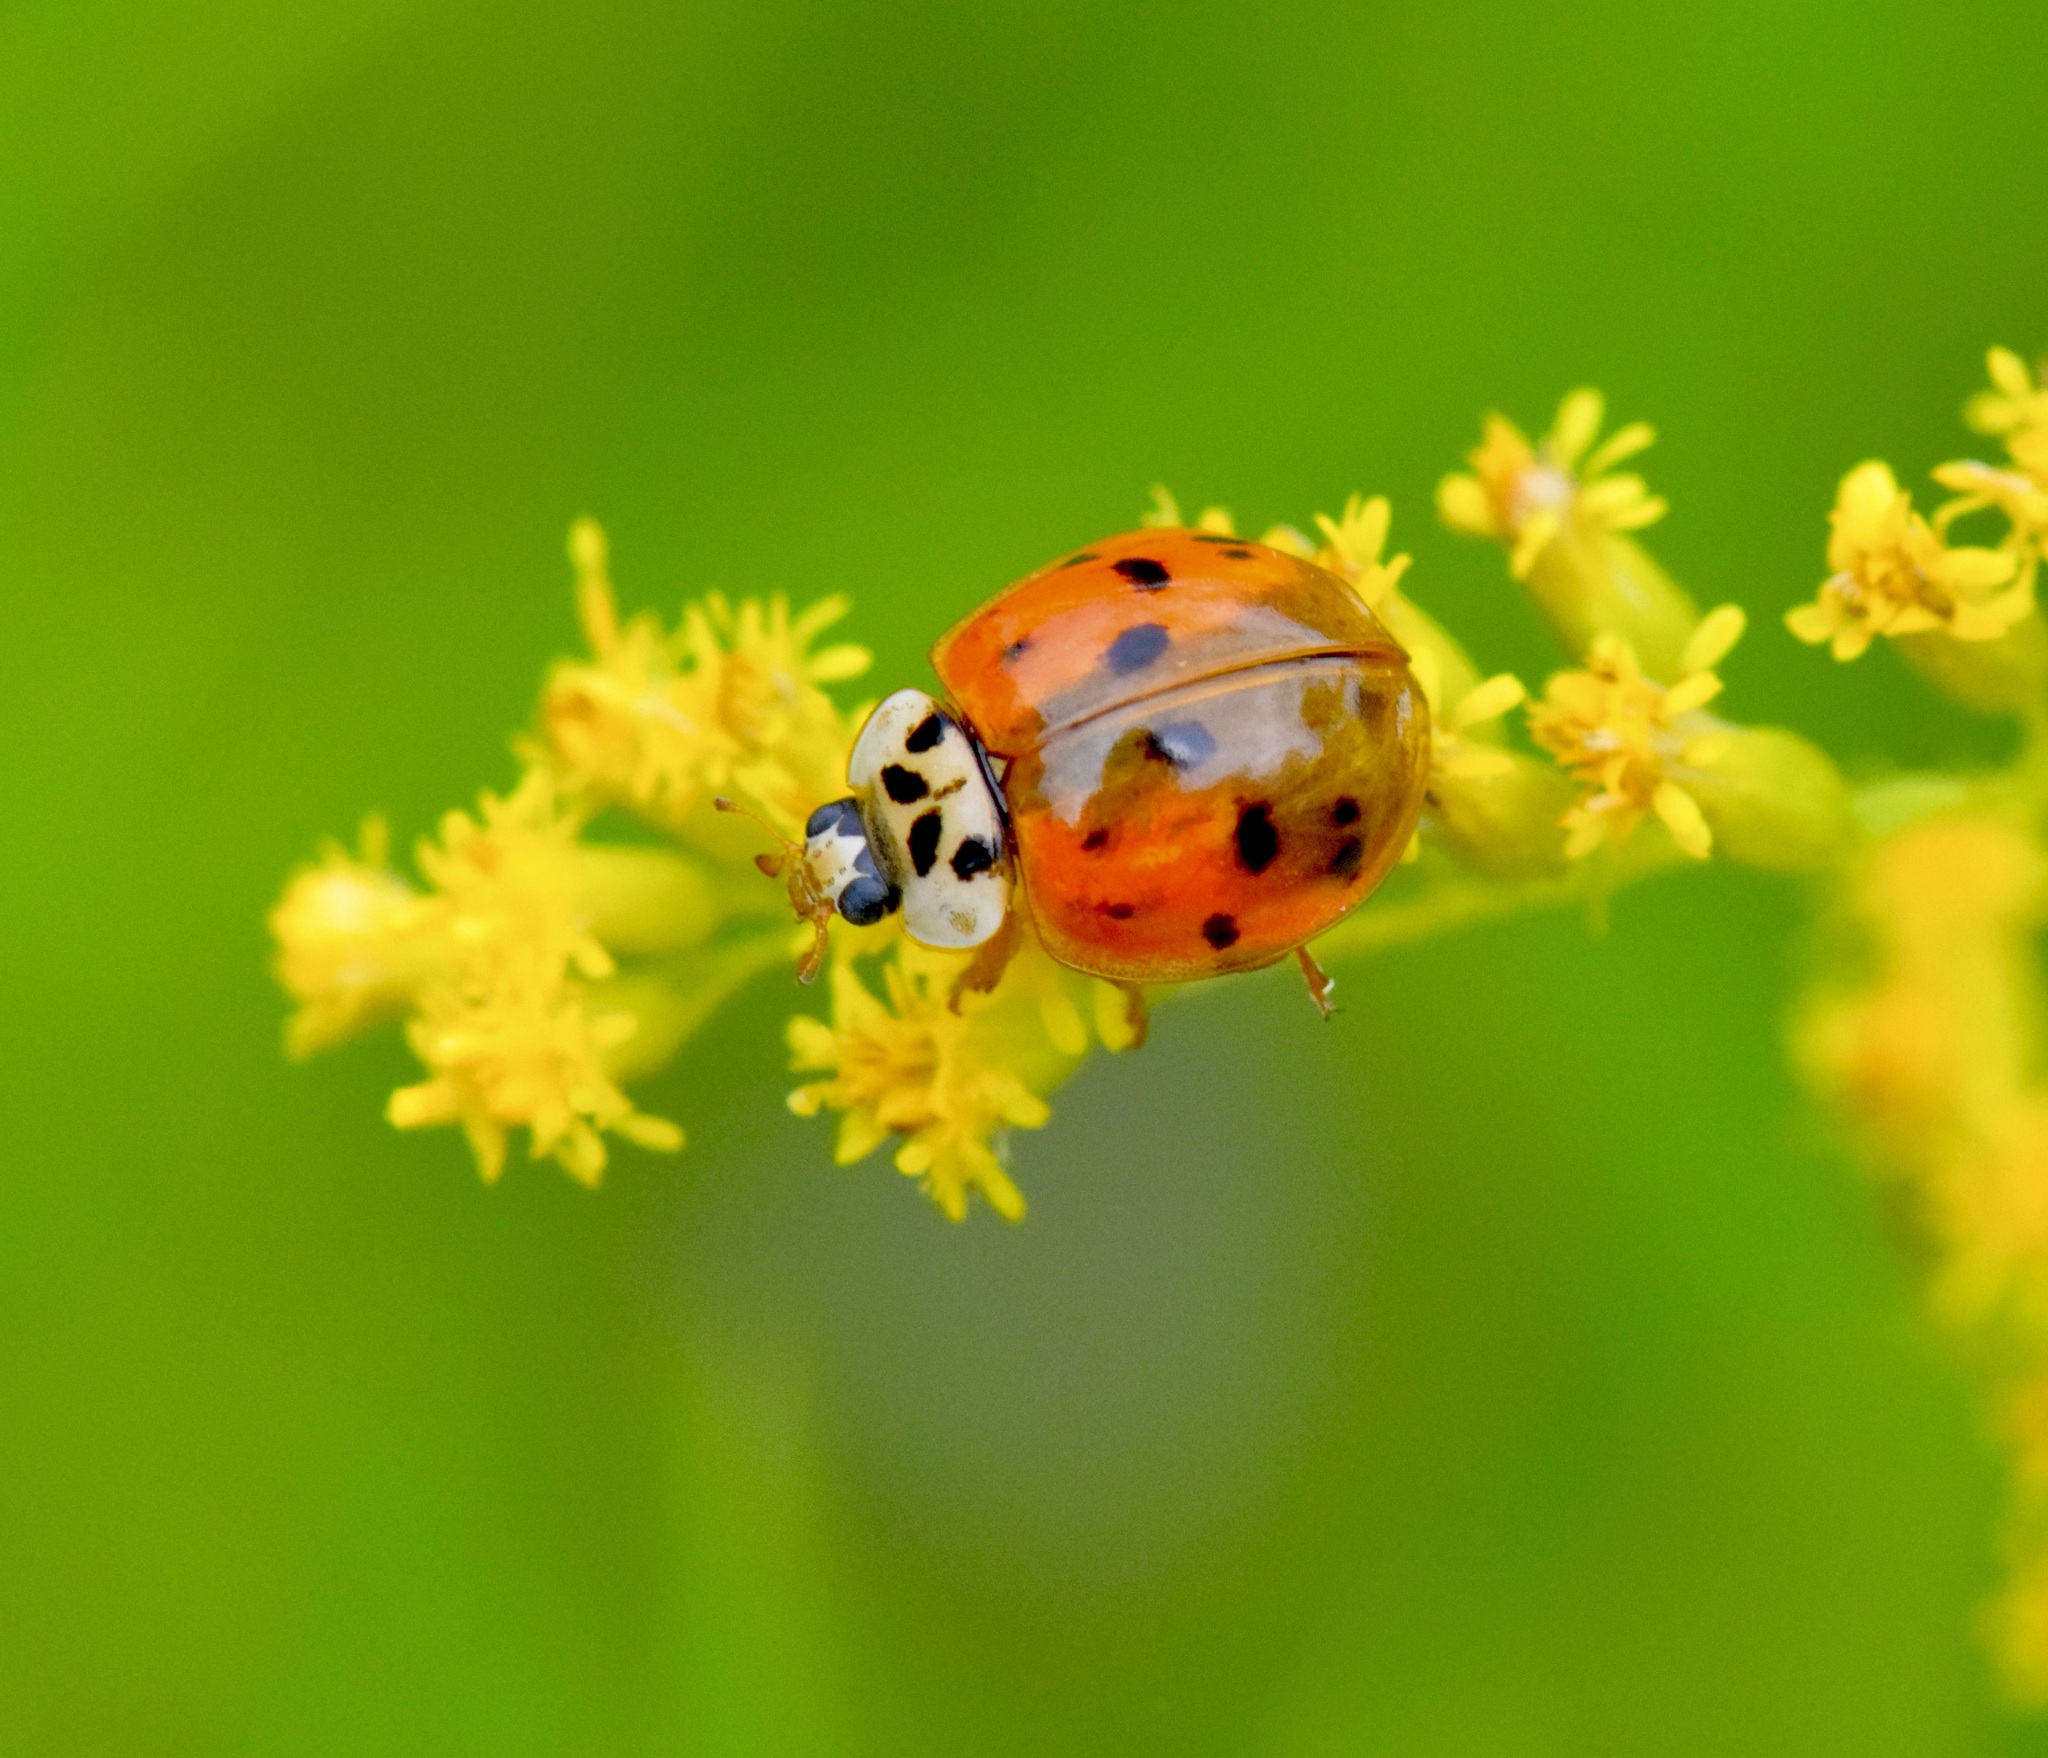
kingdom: Animalia
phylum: Arthropoda
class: Insecta
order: Coleoptera
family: Coccinellidae
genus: Harmonia
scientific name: Harmonia axyridis
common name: Harlequin ladybird
